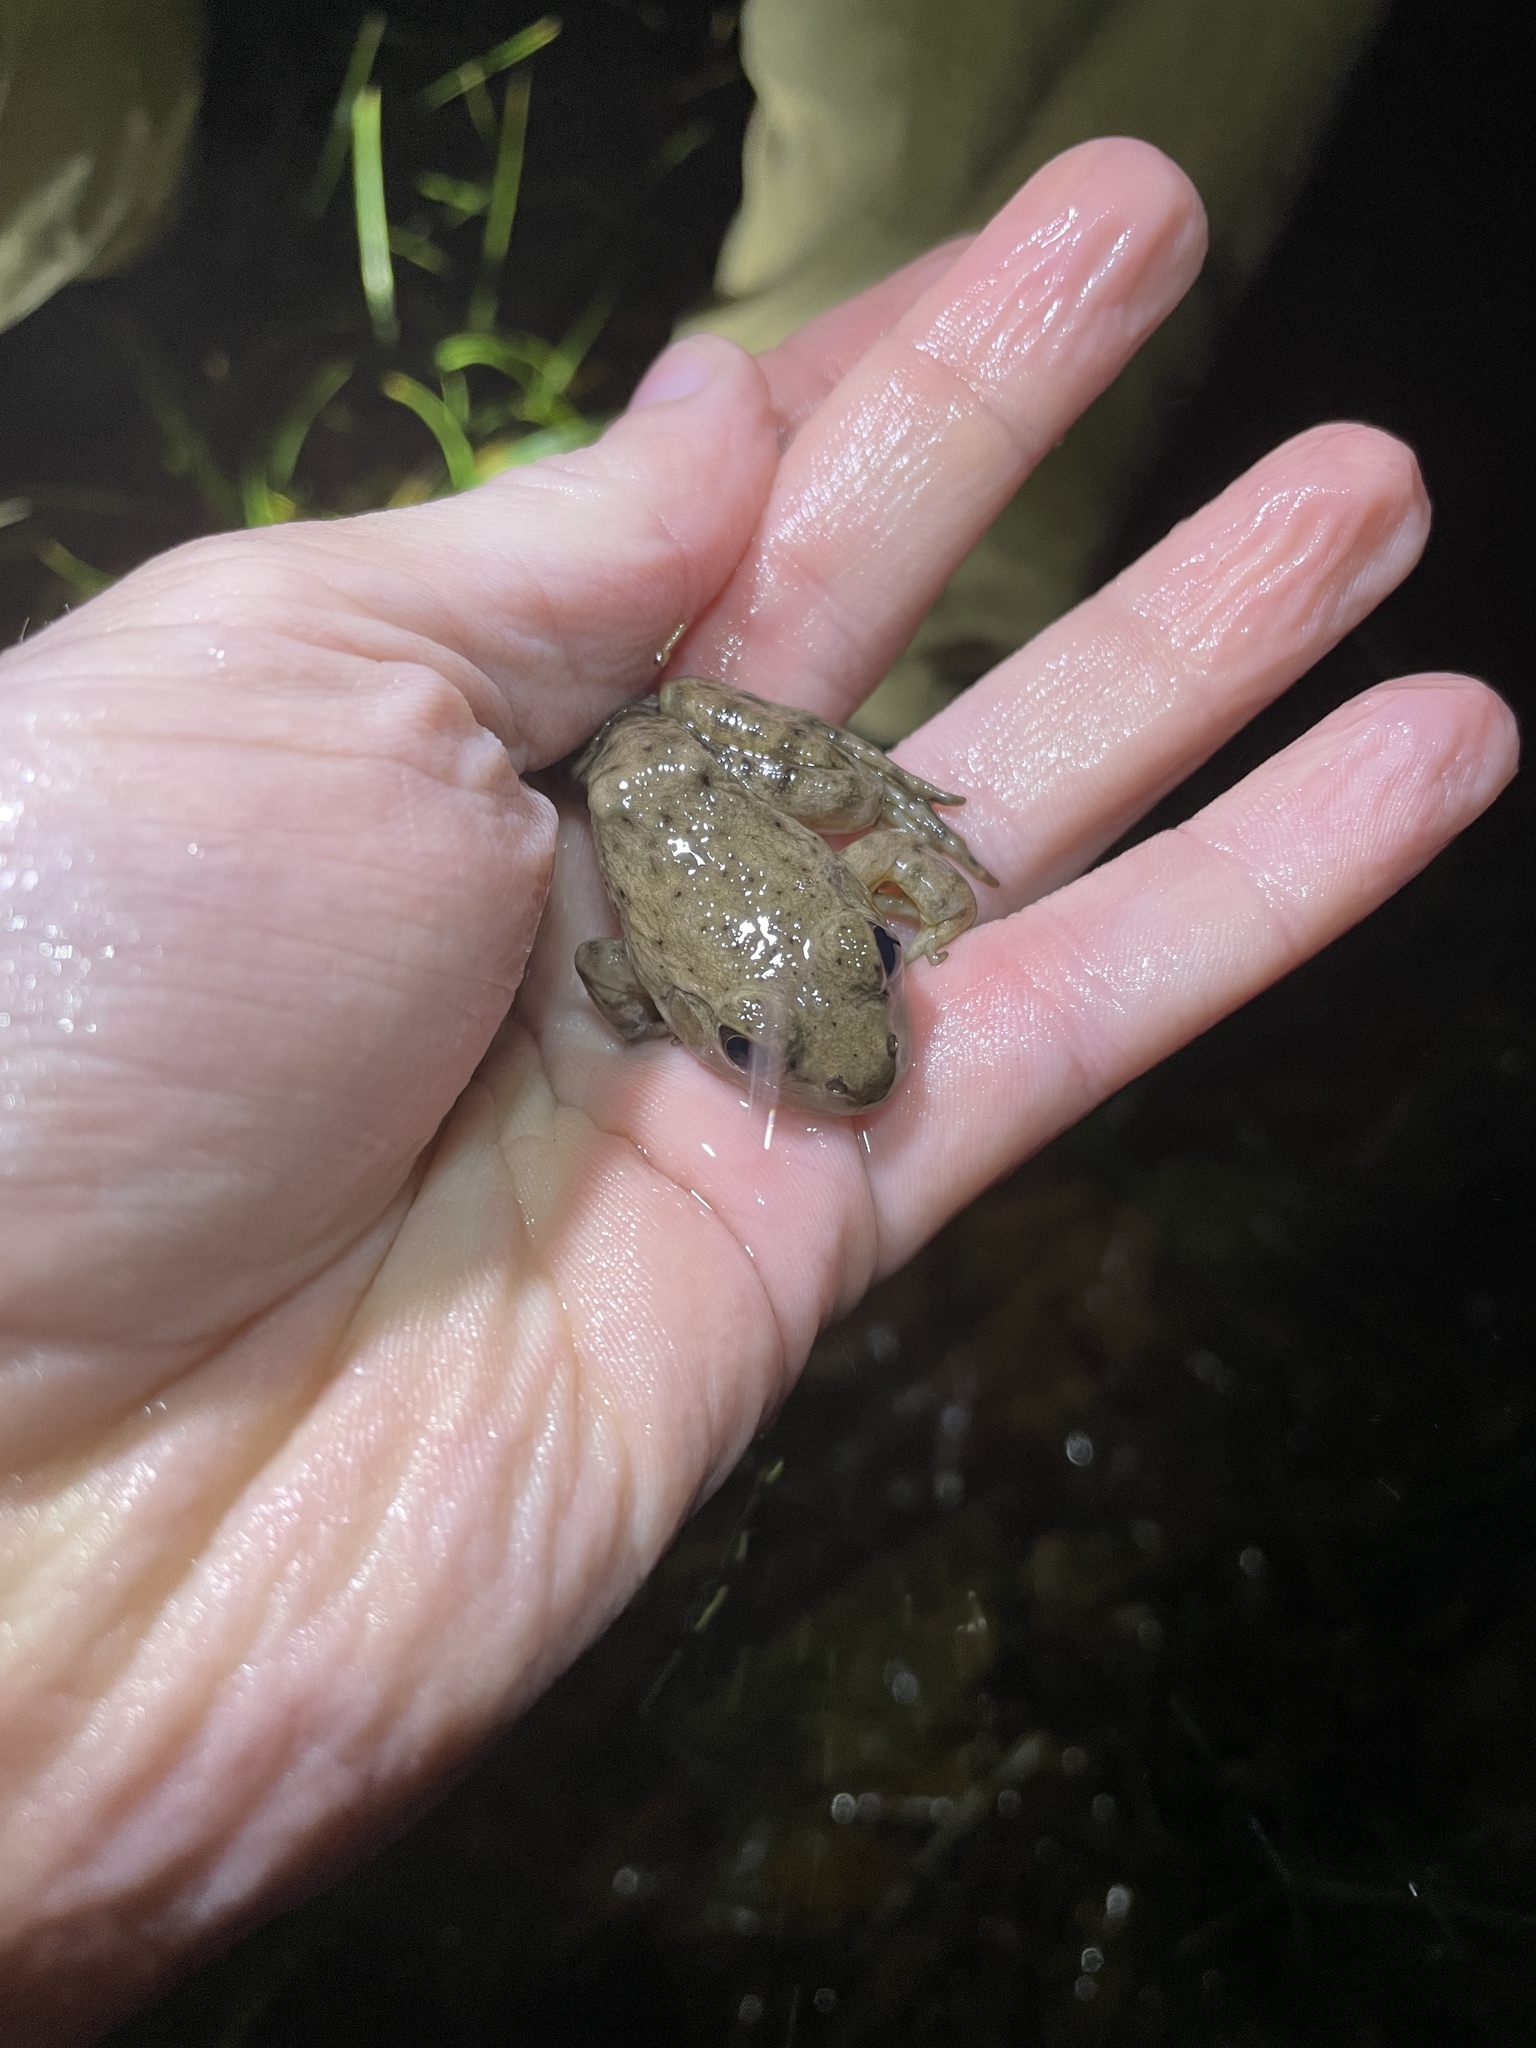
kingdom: Animalia
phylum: Chordata
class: Amphibia
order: Anura
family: Ranidae
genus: Lithobates
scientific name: Lithobates catesbeianus
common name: American bullfrog
